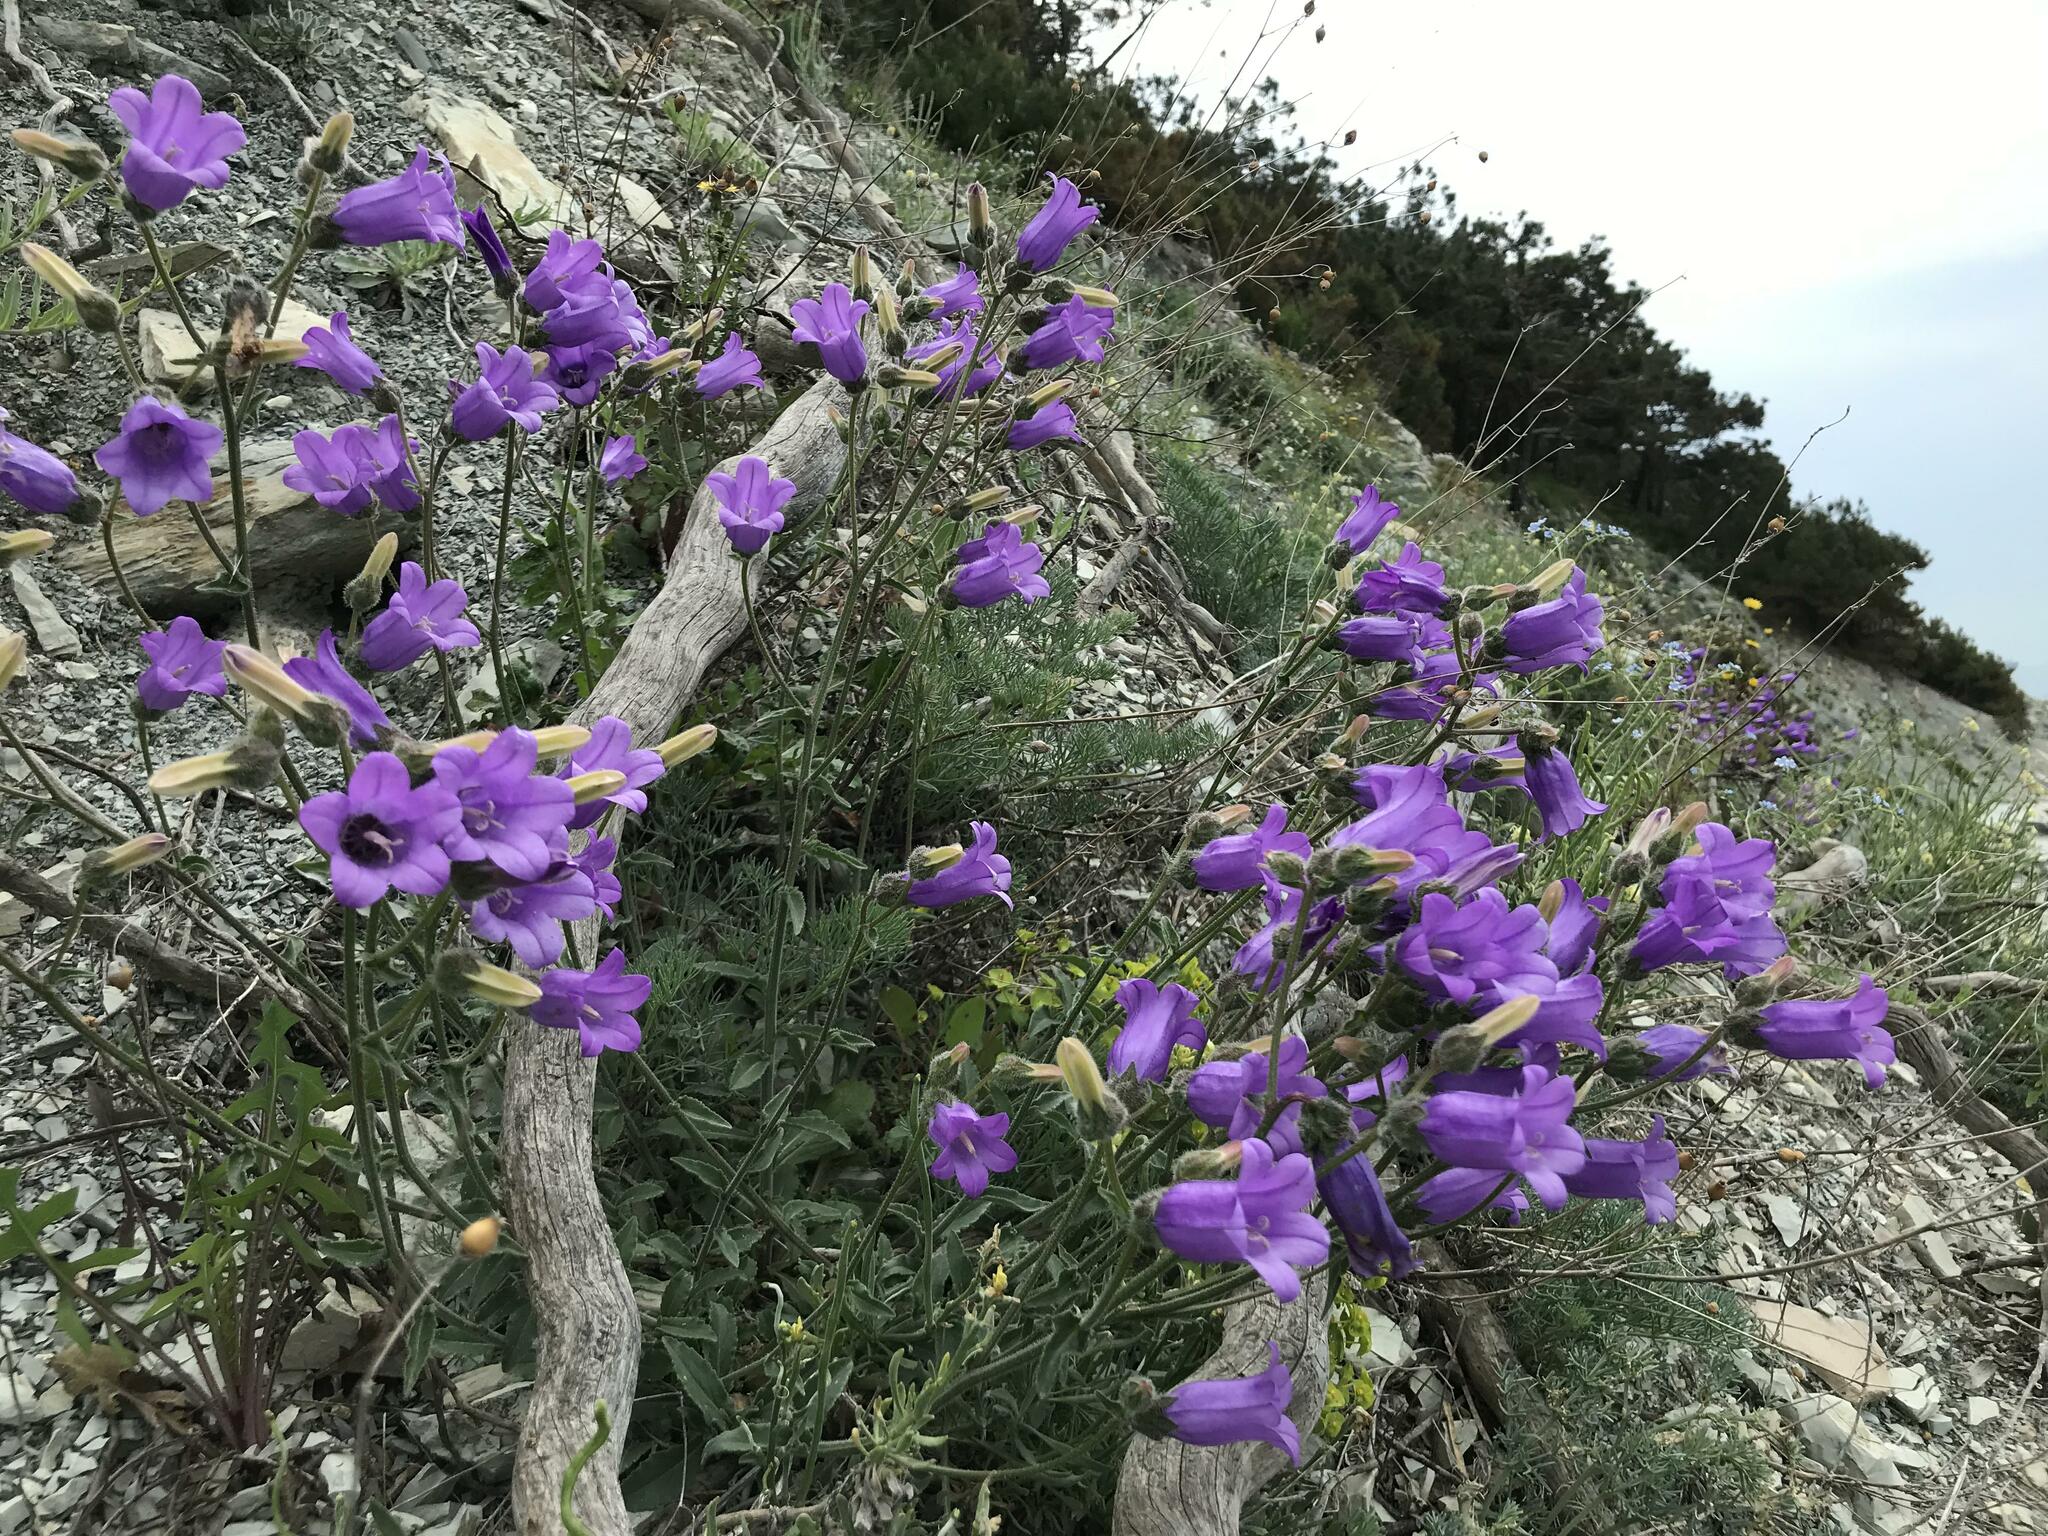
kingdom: Plantae
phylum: Tracheophyta
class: Magnoliopsida
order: Asterales
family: Campanulaceae
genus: Campanula
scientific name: Campanula komarovii
